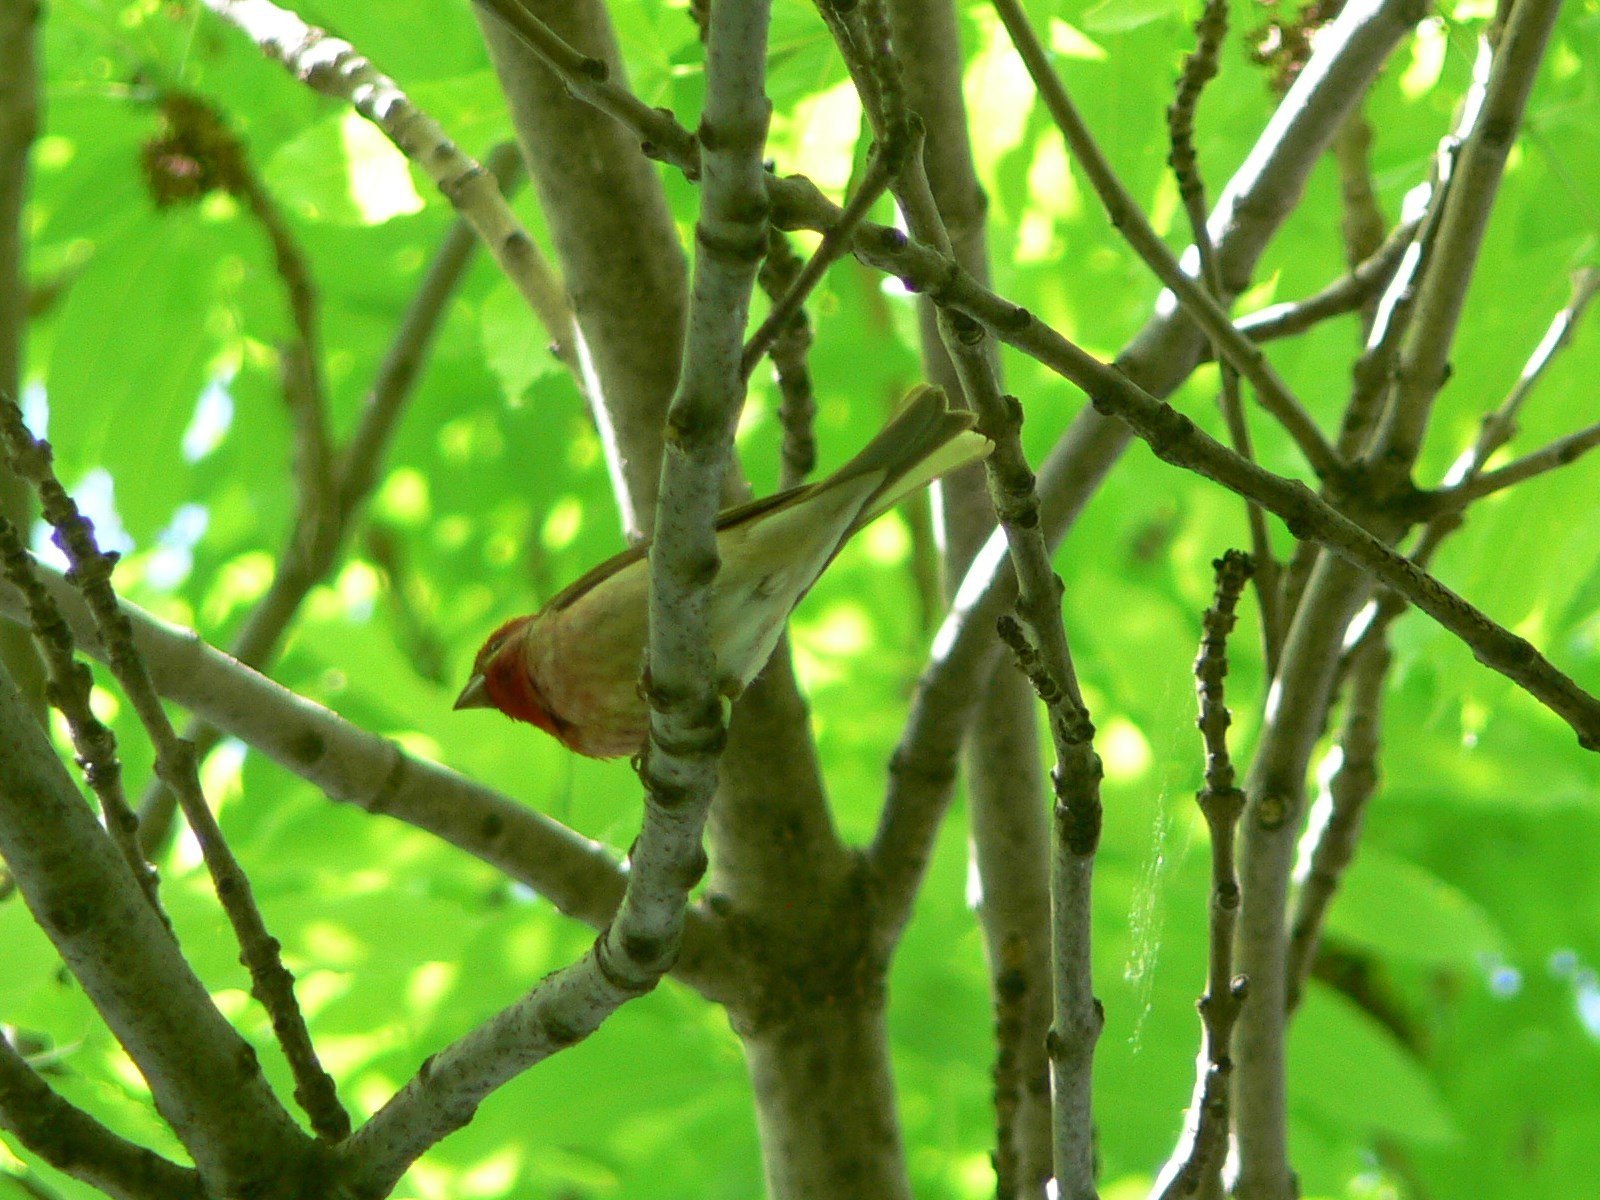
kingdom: Animalia
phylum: Chordata
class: Aves
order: Passeriformes
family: Fringillidae
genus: Carpodacus
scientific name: Carpodacus erythrinus
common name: Common rosefinch
